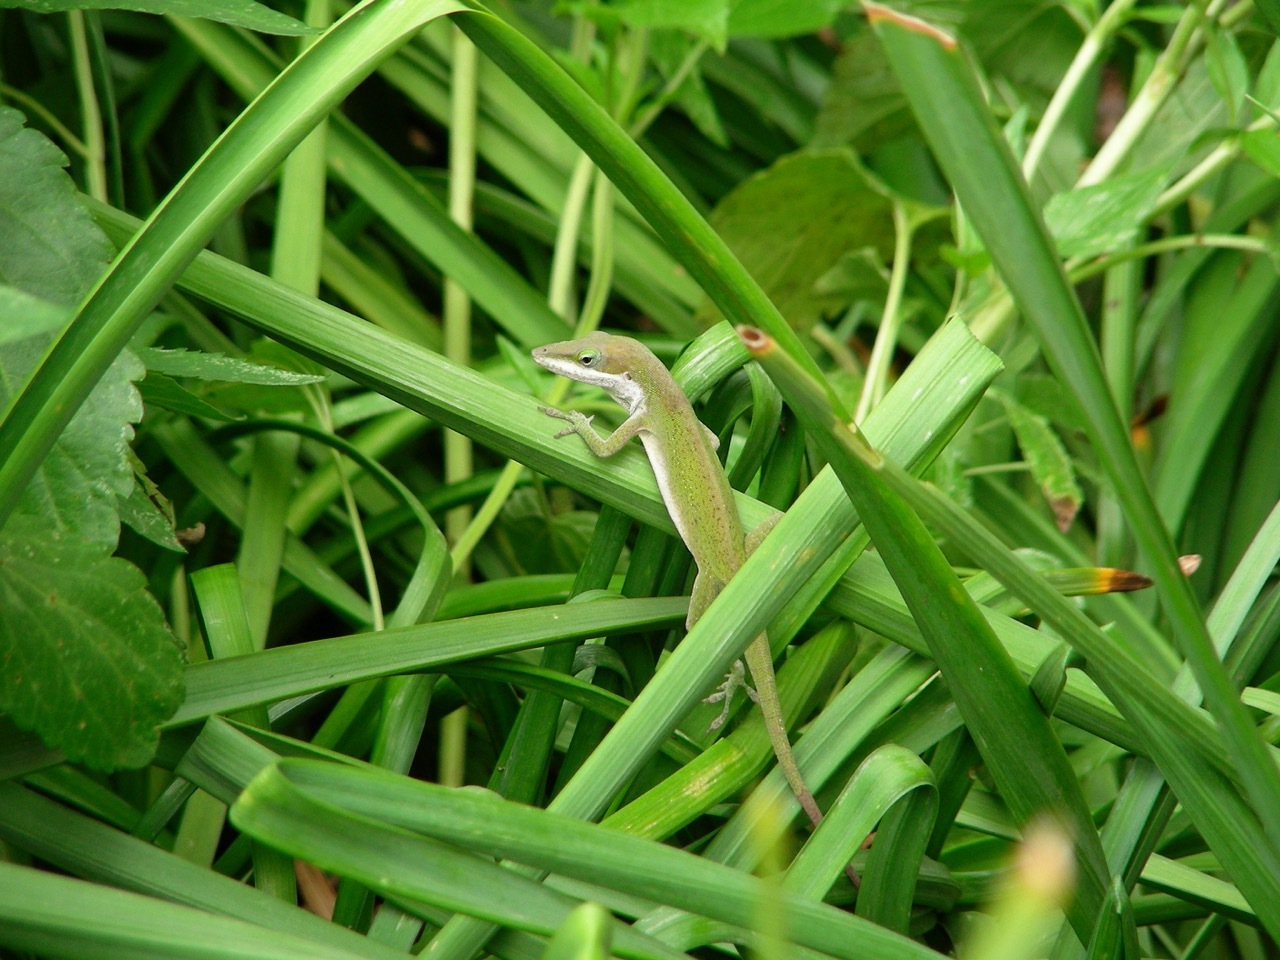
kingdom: Animalia
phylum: Chordata
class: Squamata
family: Dactyloidae
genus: Anolis
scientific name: Anolis carolinensis
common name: Green anole
